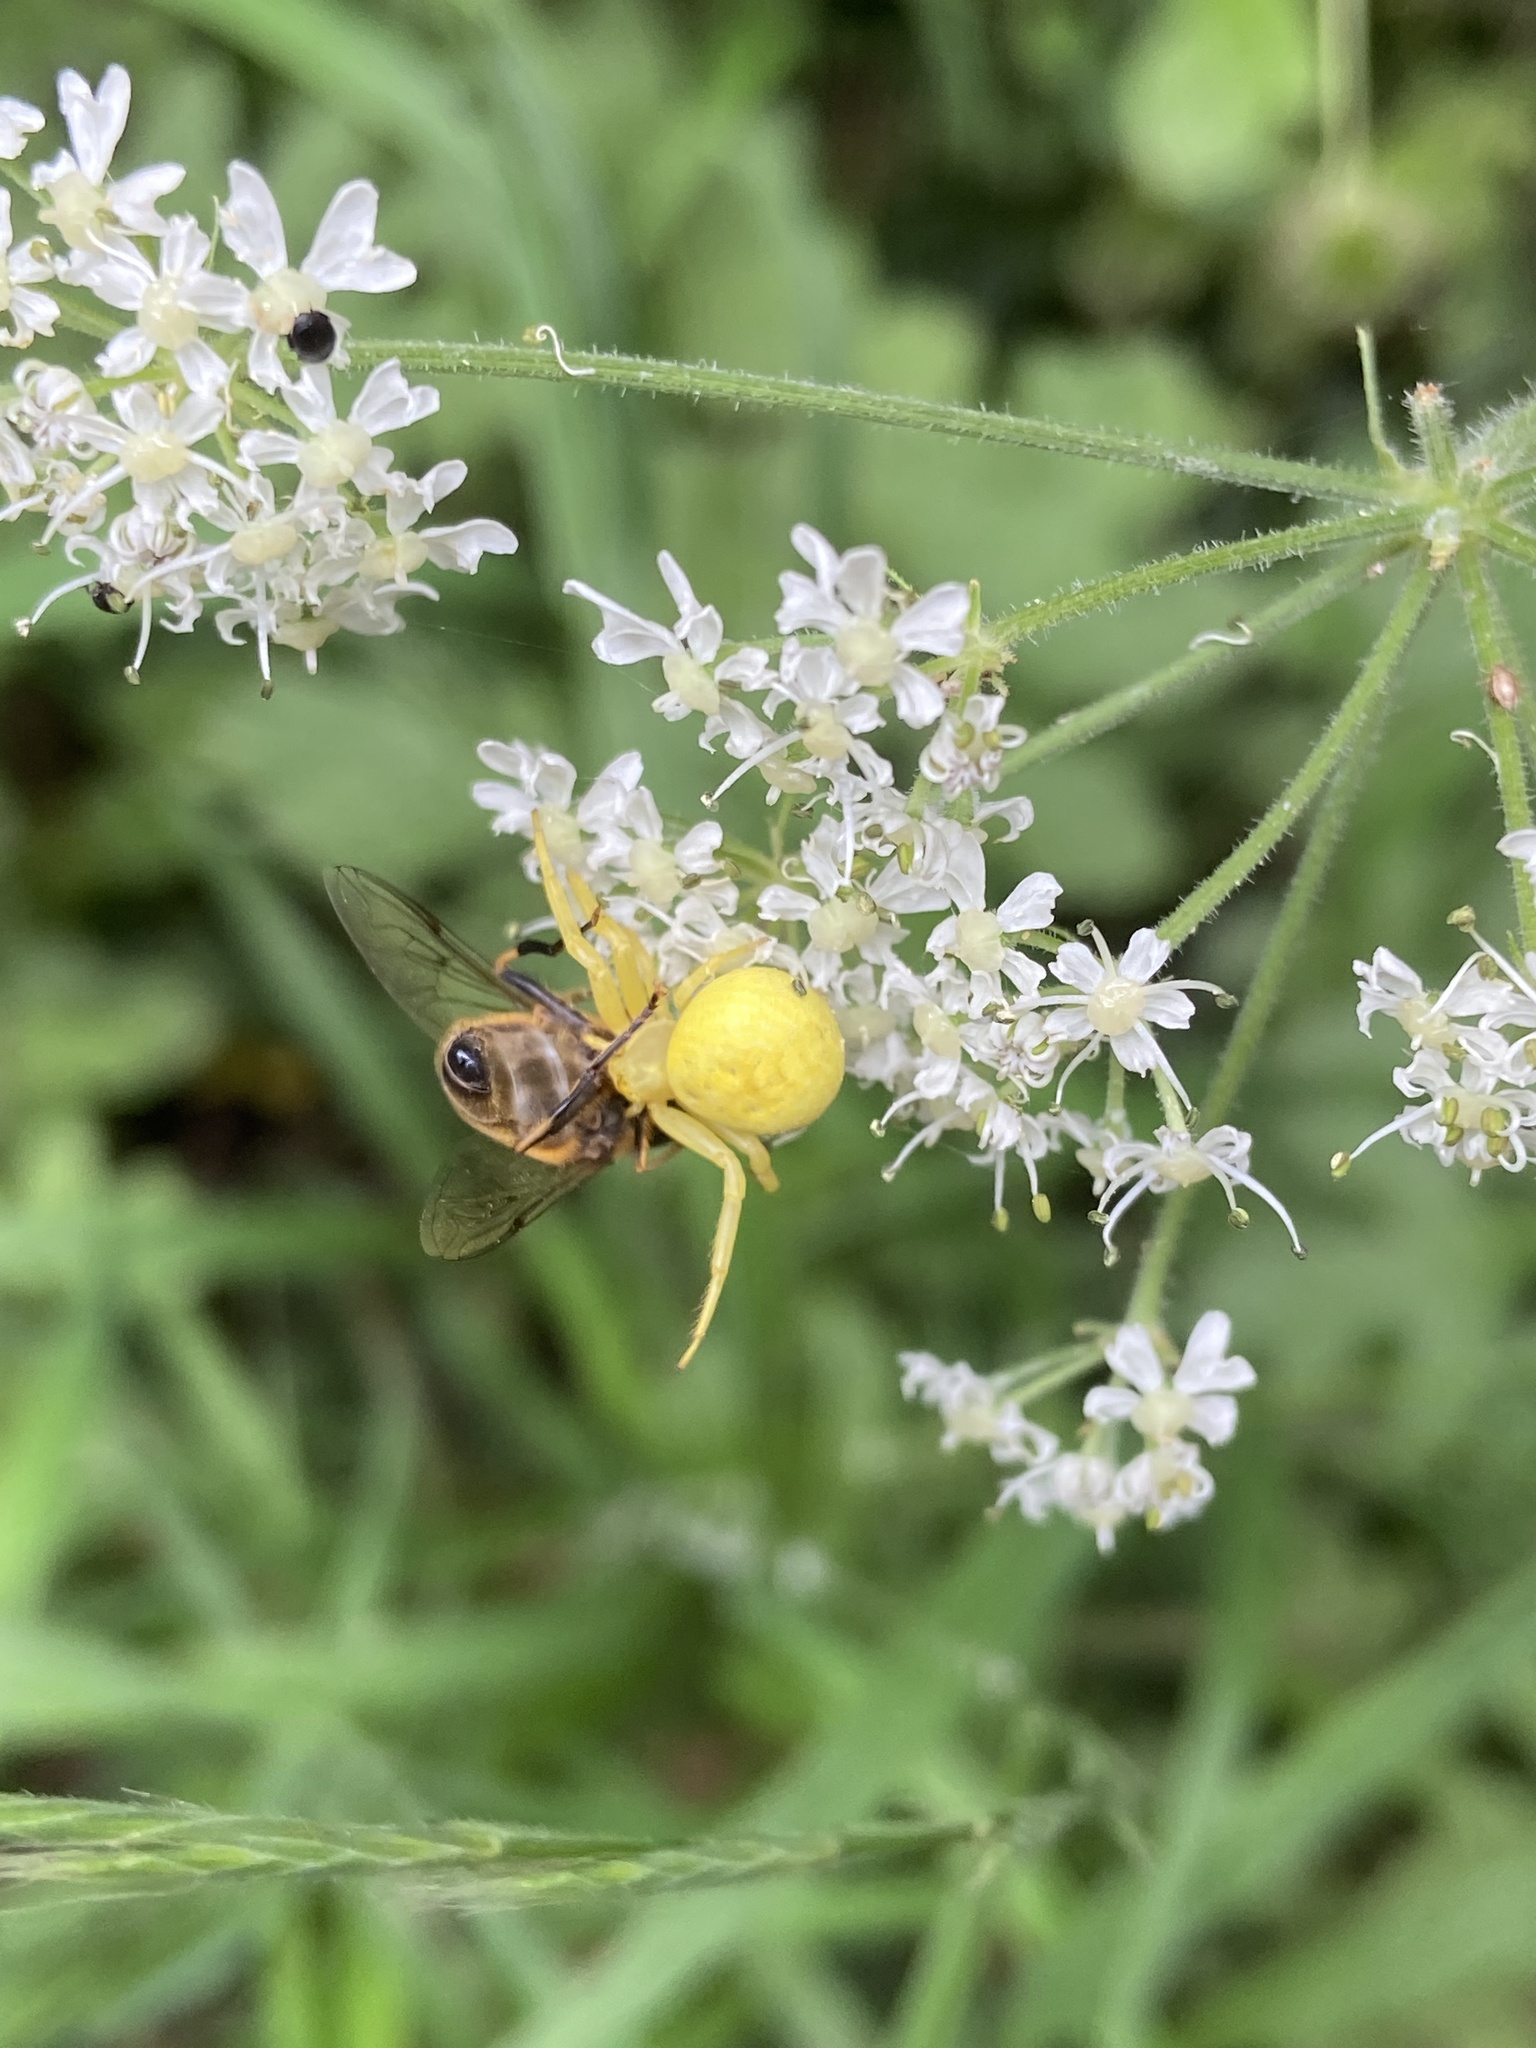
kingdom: Animalia
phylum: Arthropoda
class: Arachnida
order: Araneae
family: Thomisidae
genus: Misumena
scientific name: Misumena vatia
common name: Goldenrod crab spider
